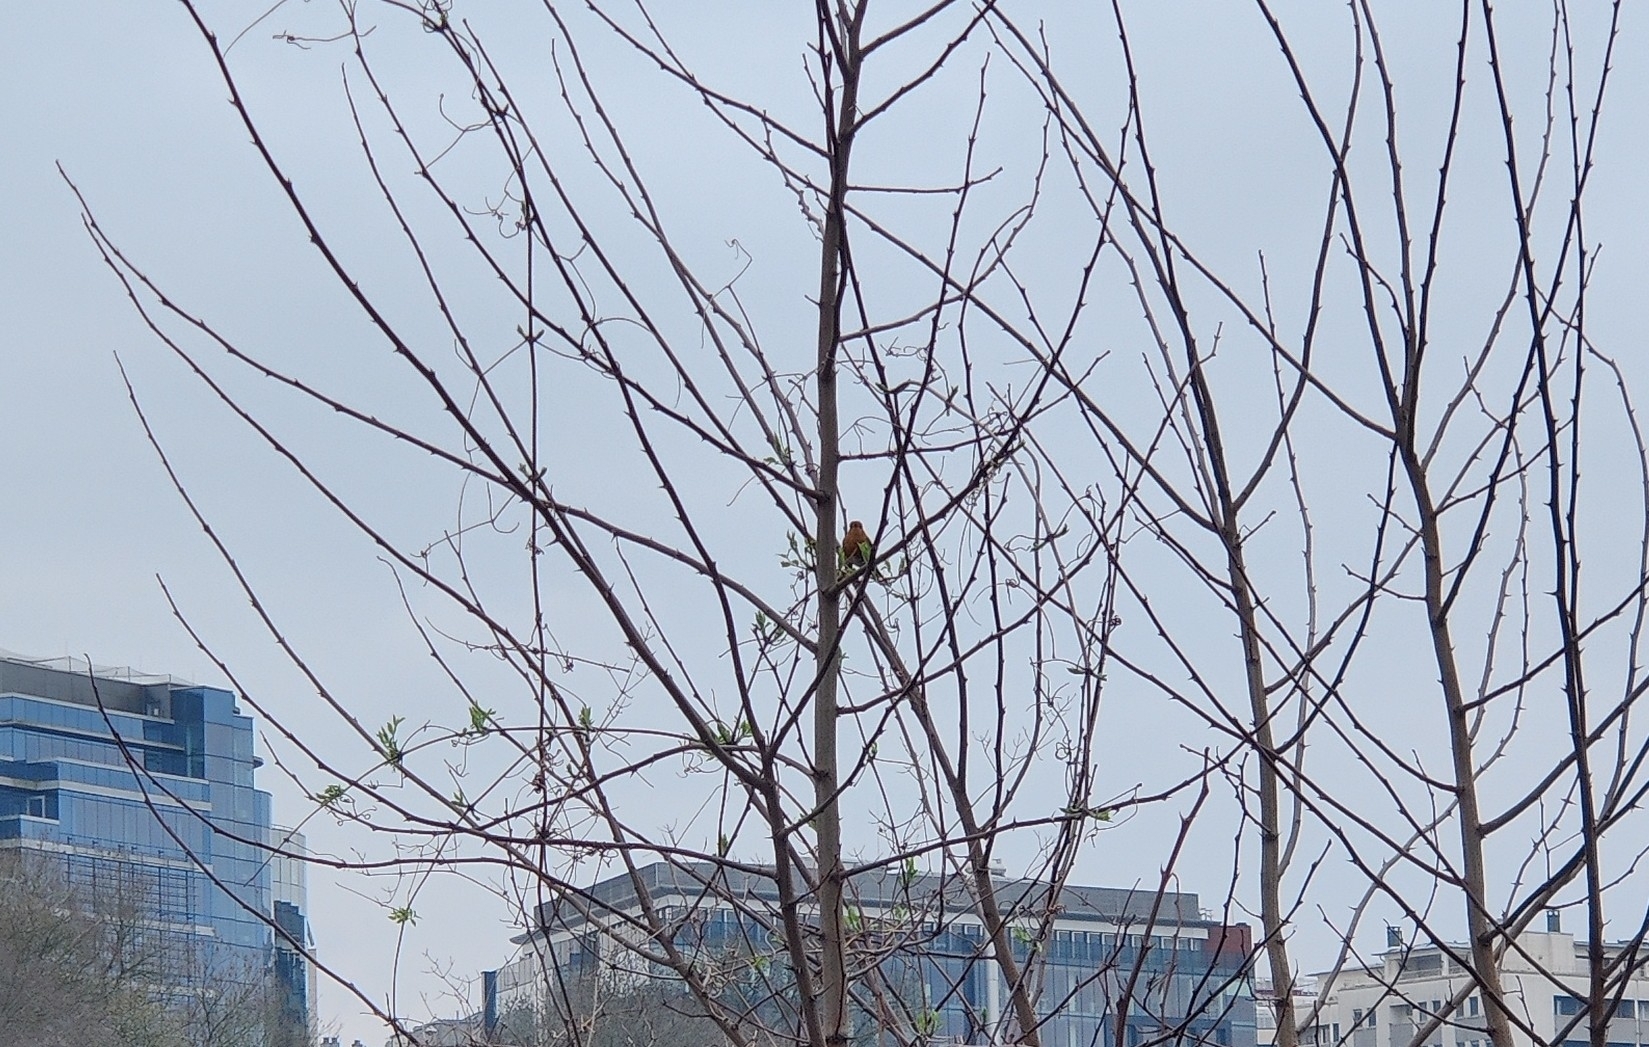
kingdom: Animalia
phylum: Chordata
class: Aves
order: Passeriformes
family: Muscicapidae
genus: Erithacus
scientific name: Erithacus rubecula
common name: European robin
